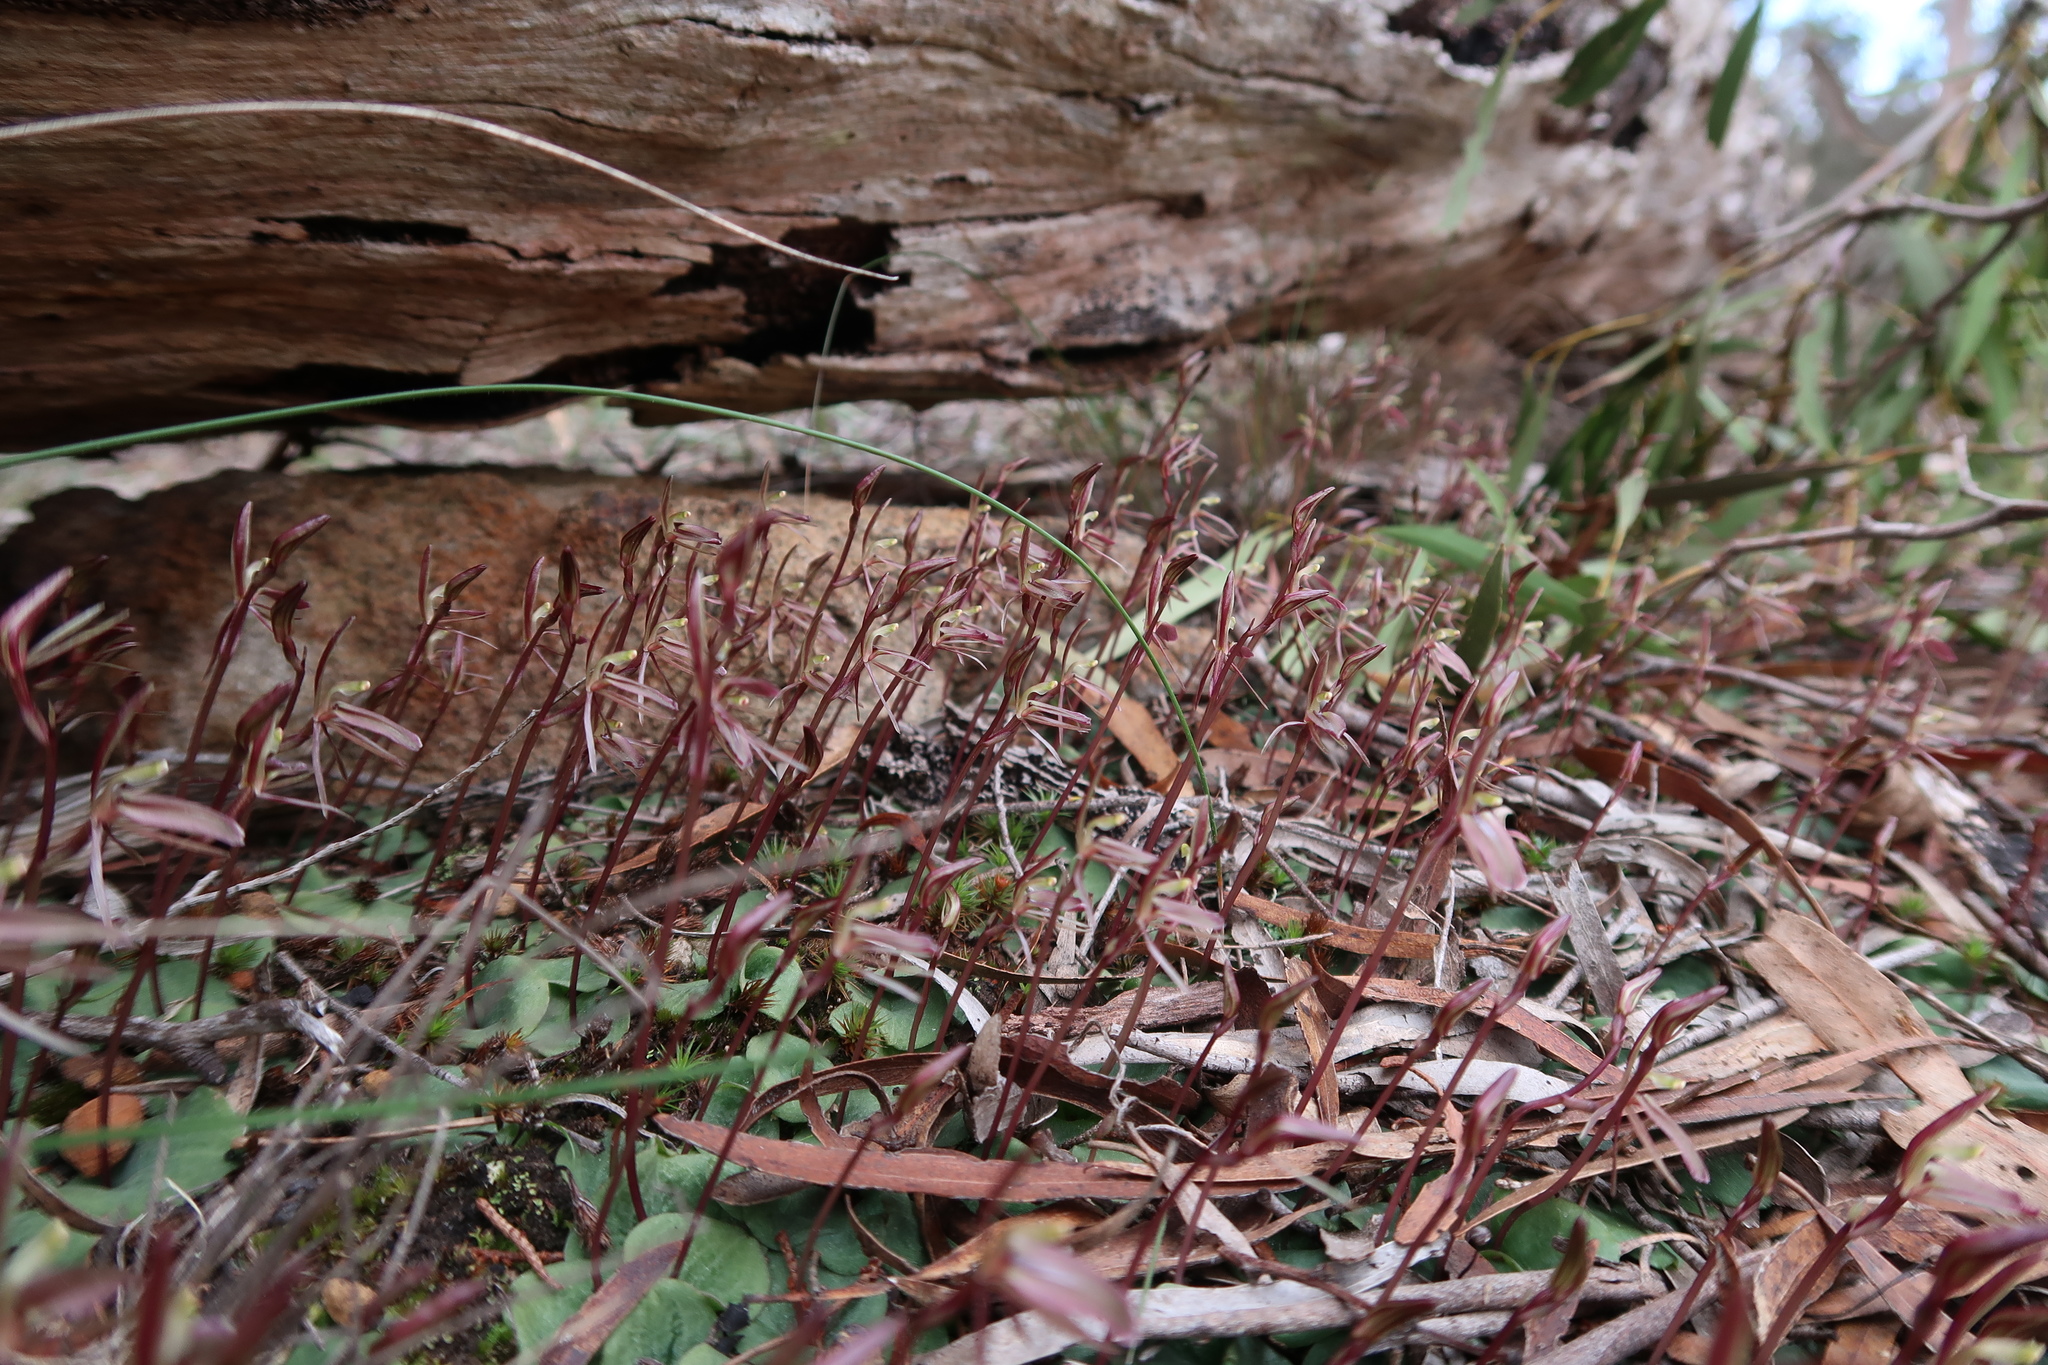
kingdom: Plantae
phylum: Tracheophyta
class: Liliopsida
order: Asparagales
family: Orchidaceae
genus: Cyrtostylis
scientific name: Cyrtostylis reniformis
